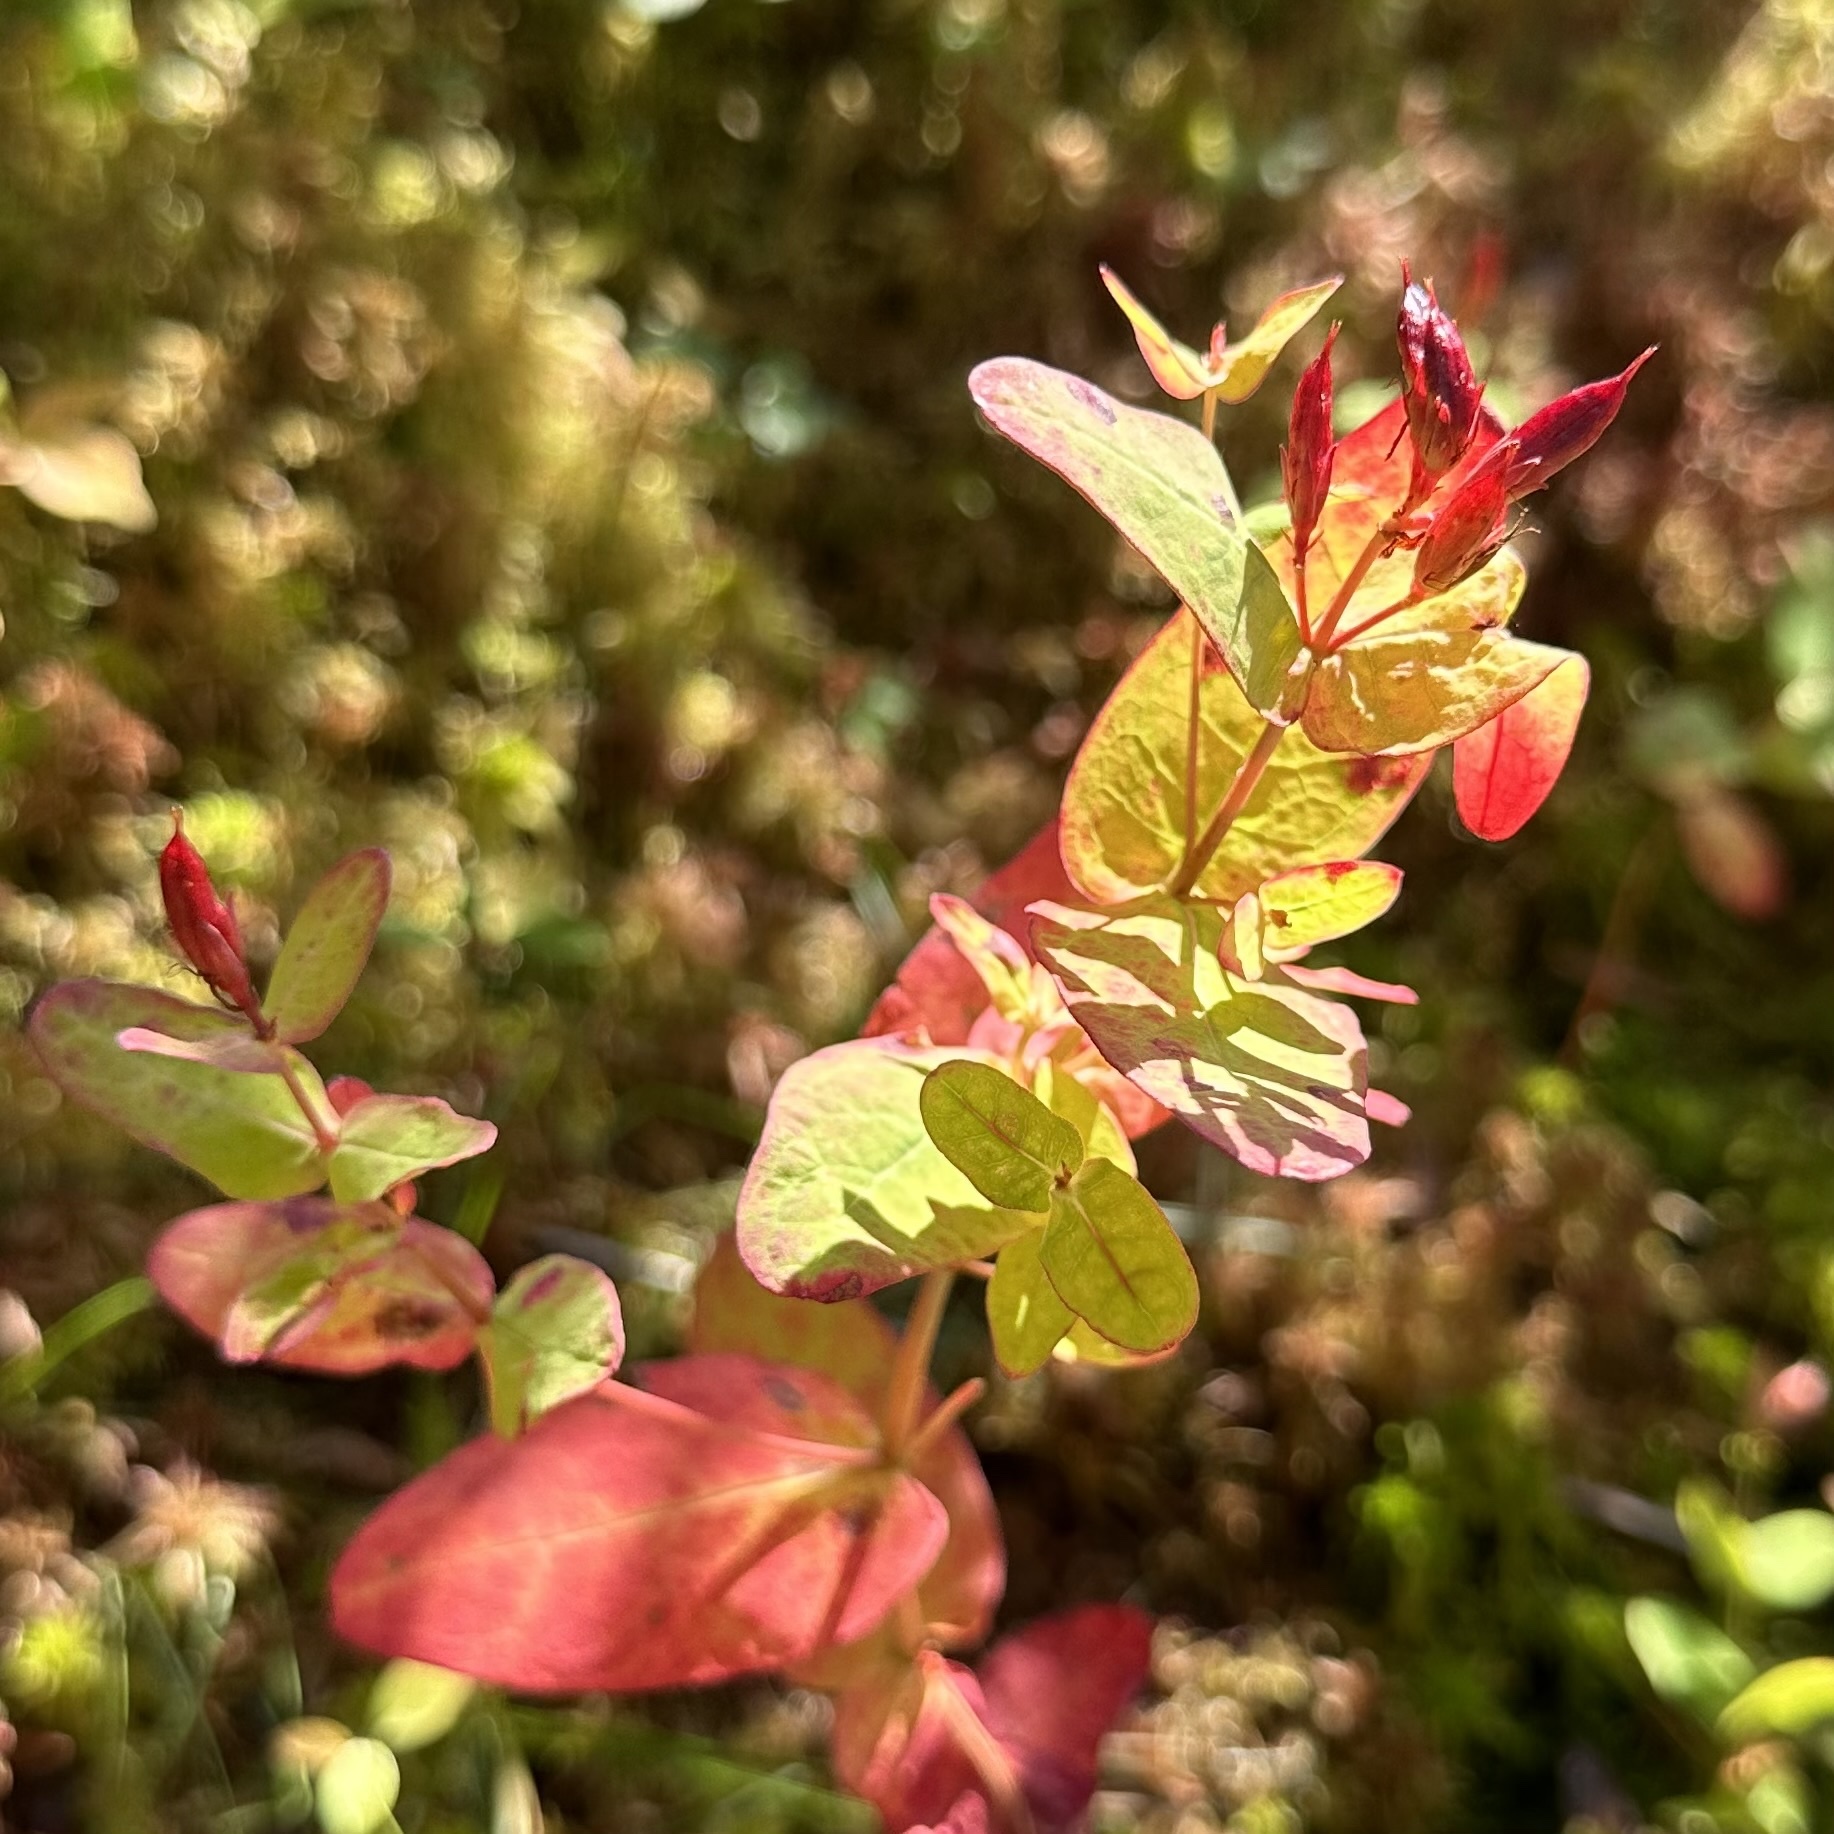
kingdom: Plantae
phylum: Tracheophyta
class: Magnoliopsida
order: Malpighiales
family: Hypericaceae
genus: Triadenum
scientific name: Triadenum fraseri
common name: Fraser's marsh st. johnswort
